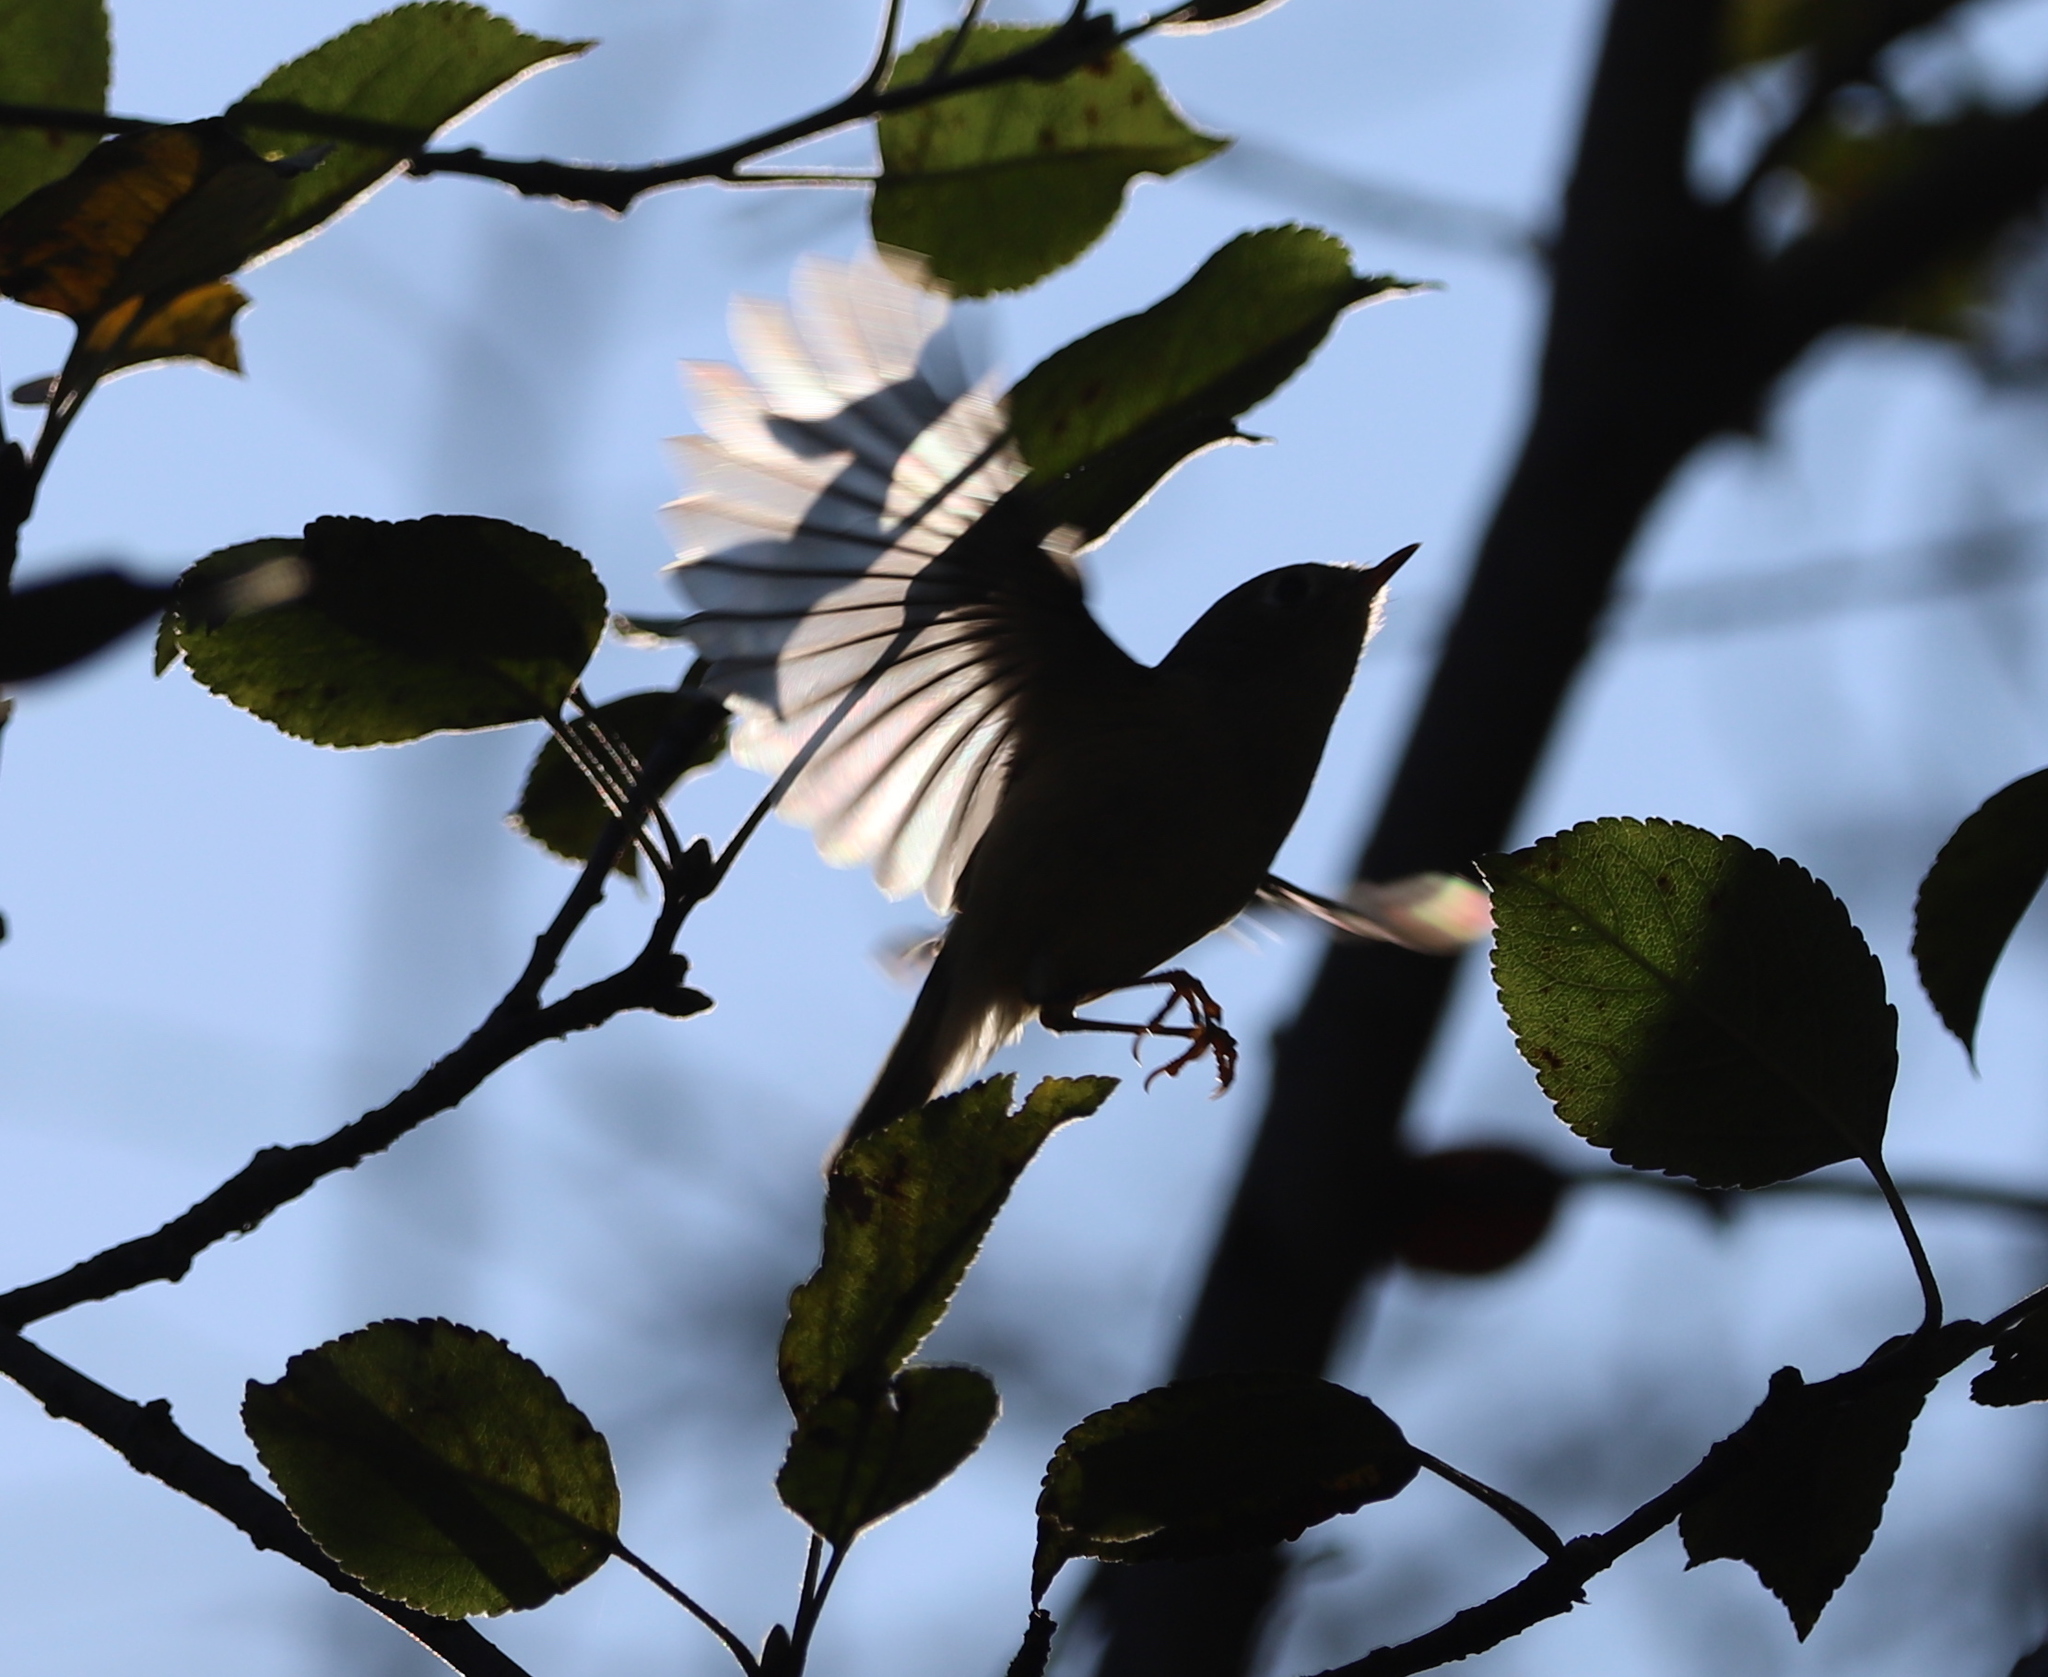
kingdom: Animalia
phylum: Chordata
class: Aves
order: Passeriformes
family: Regulidae
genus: Regulus
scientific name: Regulus calendula
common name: Ruby-crowned kinglet
